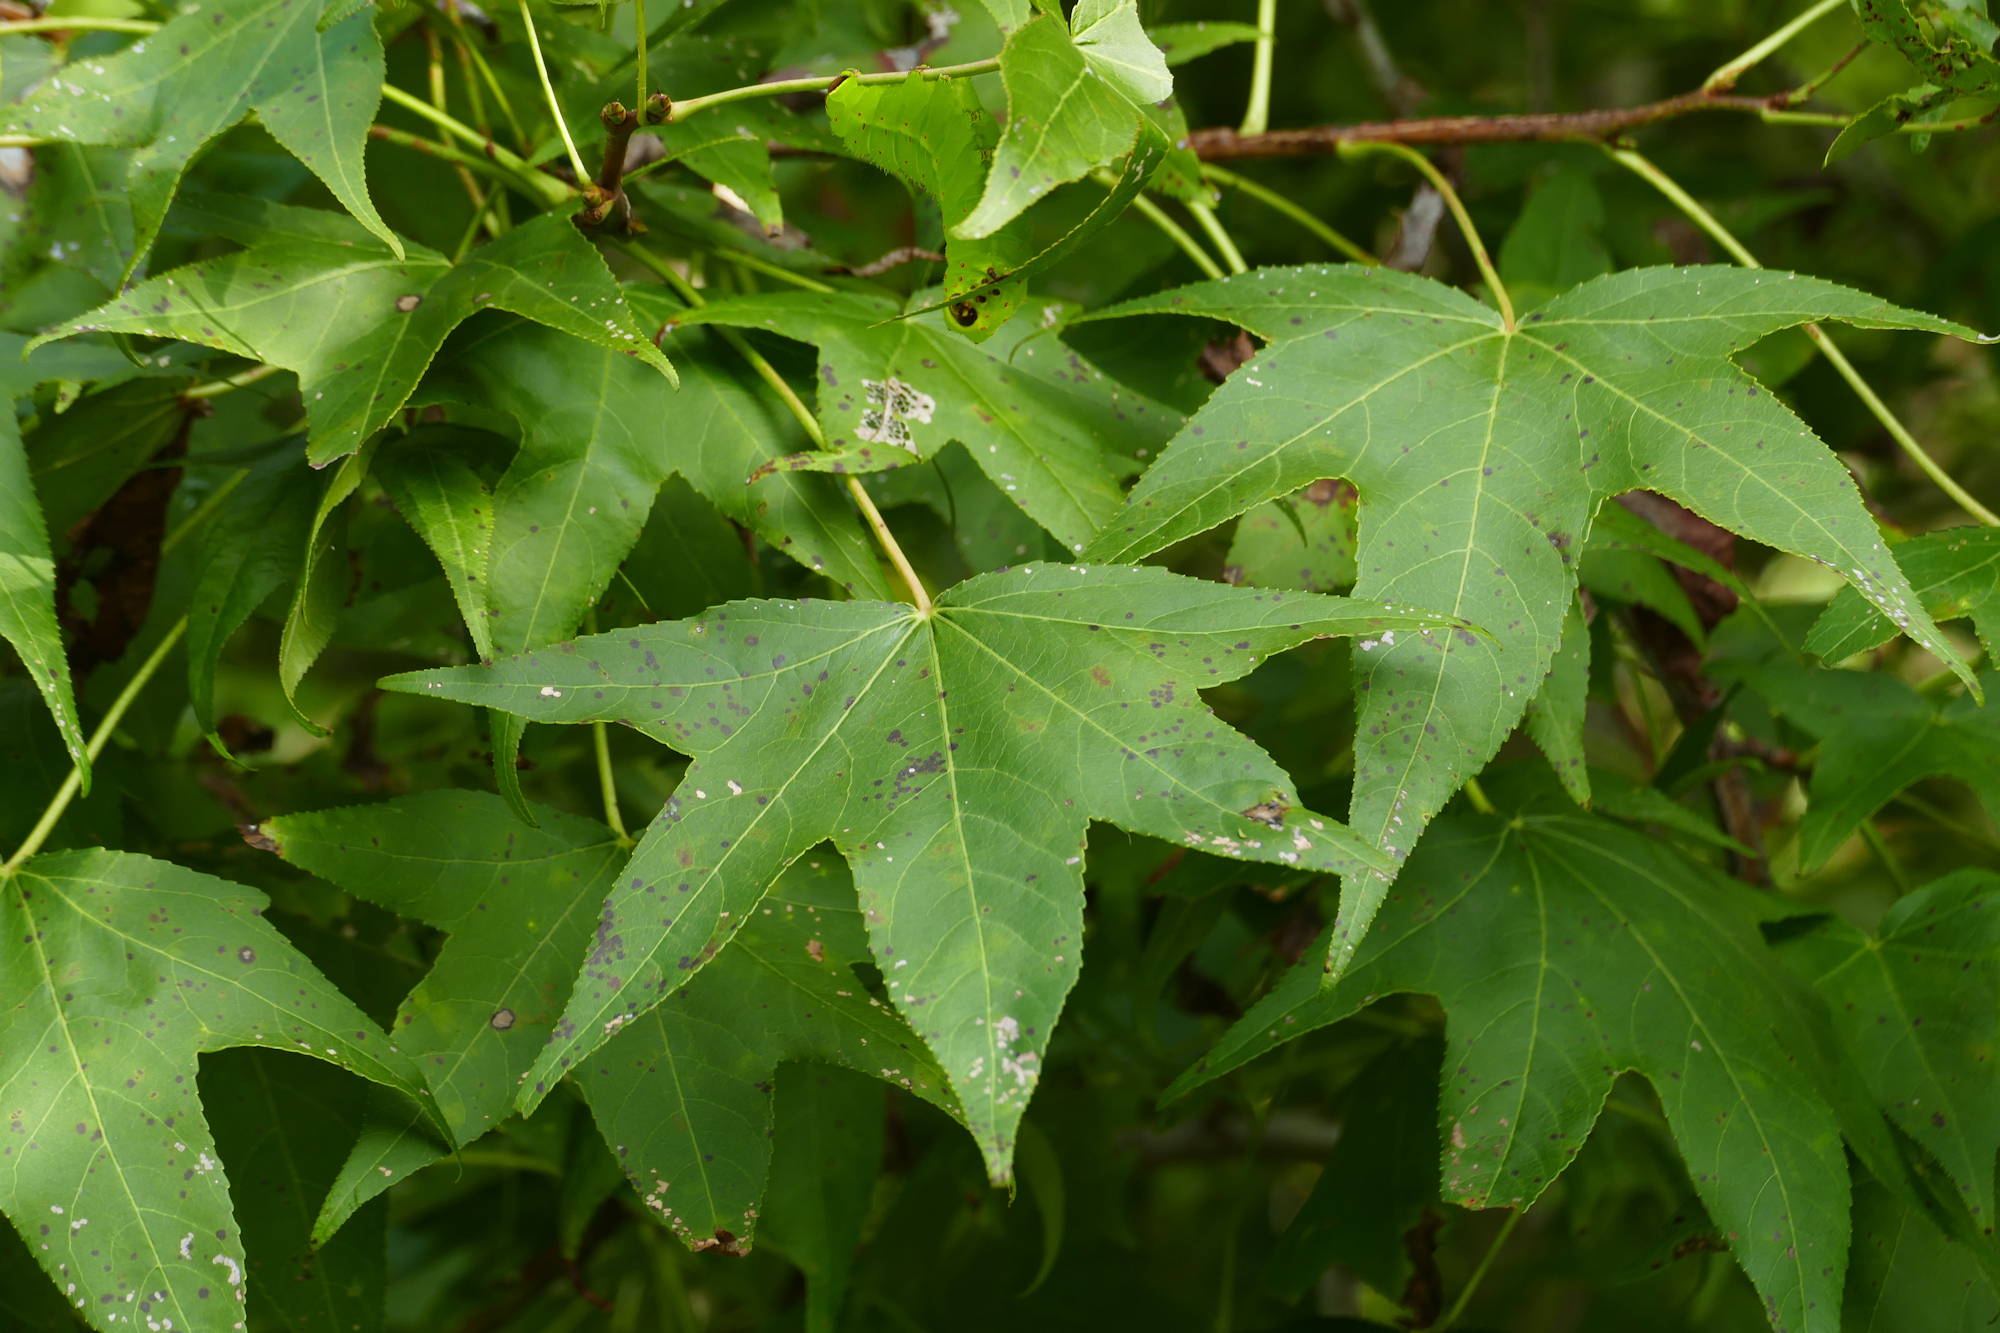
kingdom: Plantae
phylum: Tracheophyta
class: Magnoliopsida
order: Saxifragales
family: Altingiaceae
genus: Liquidambar
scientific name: Liquidambar styraciflua
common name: Sweet gum
